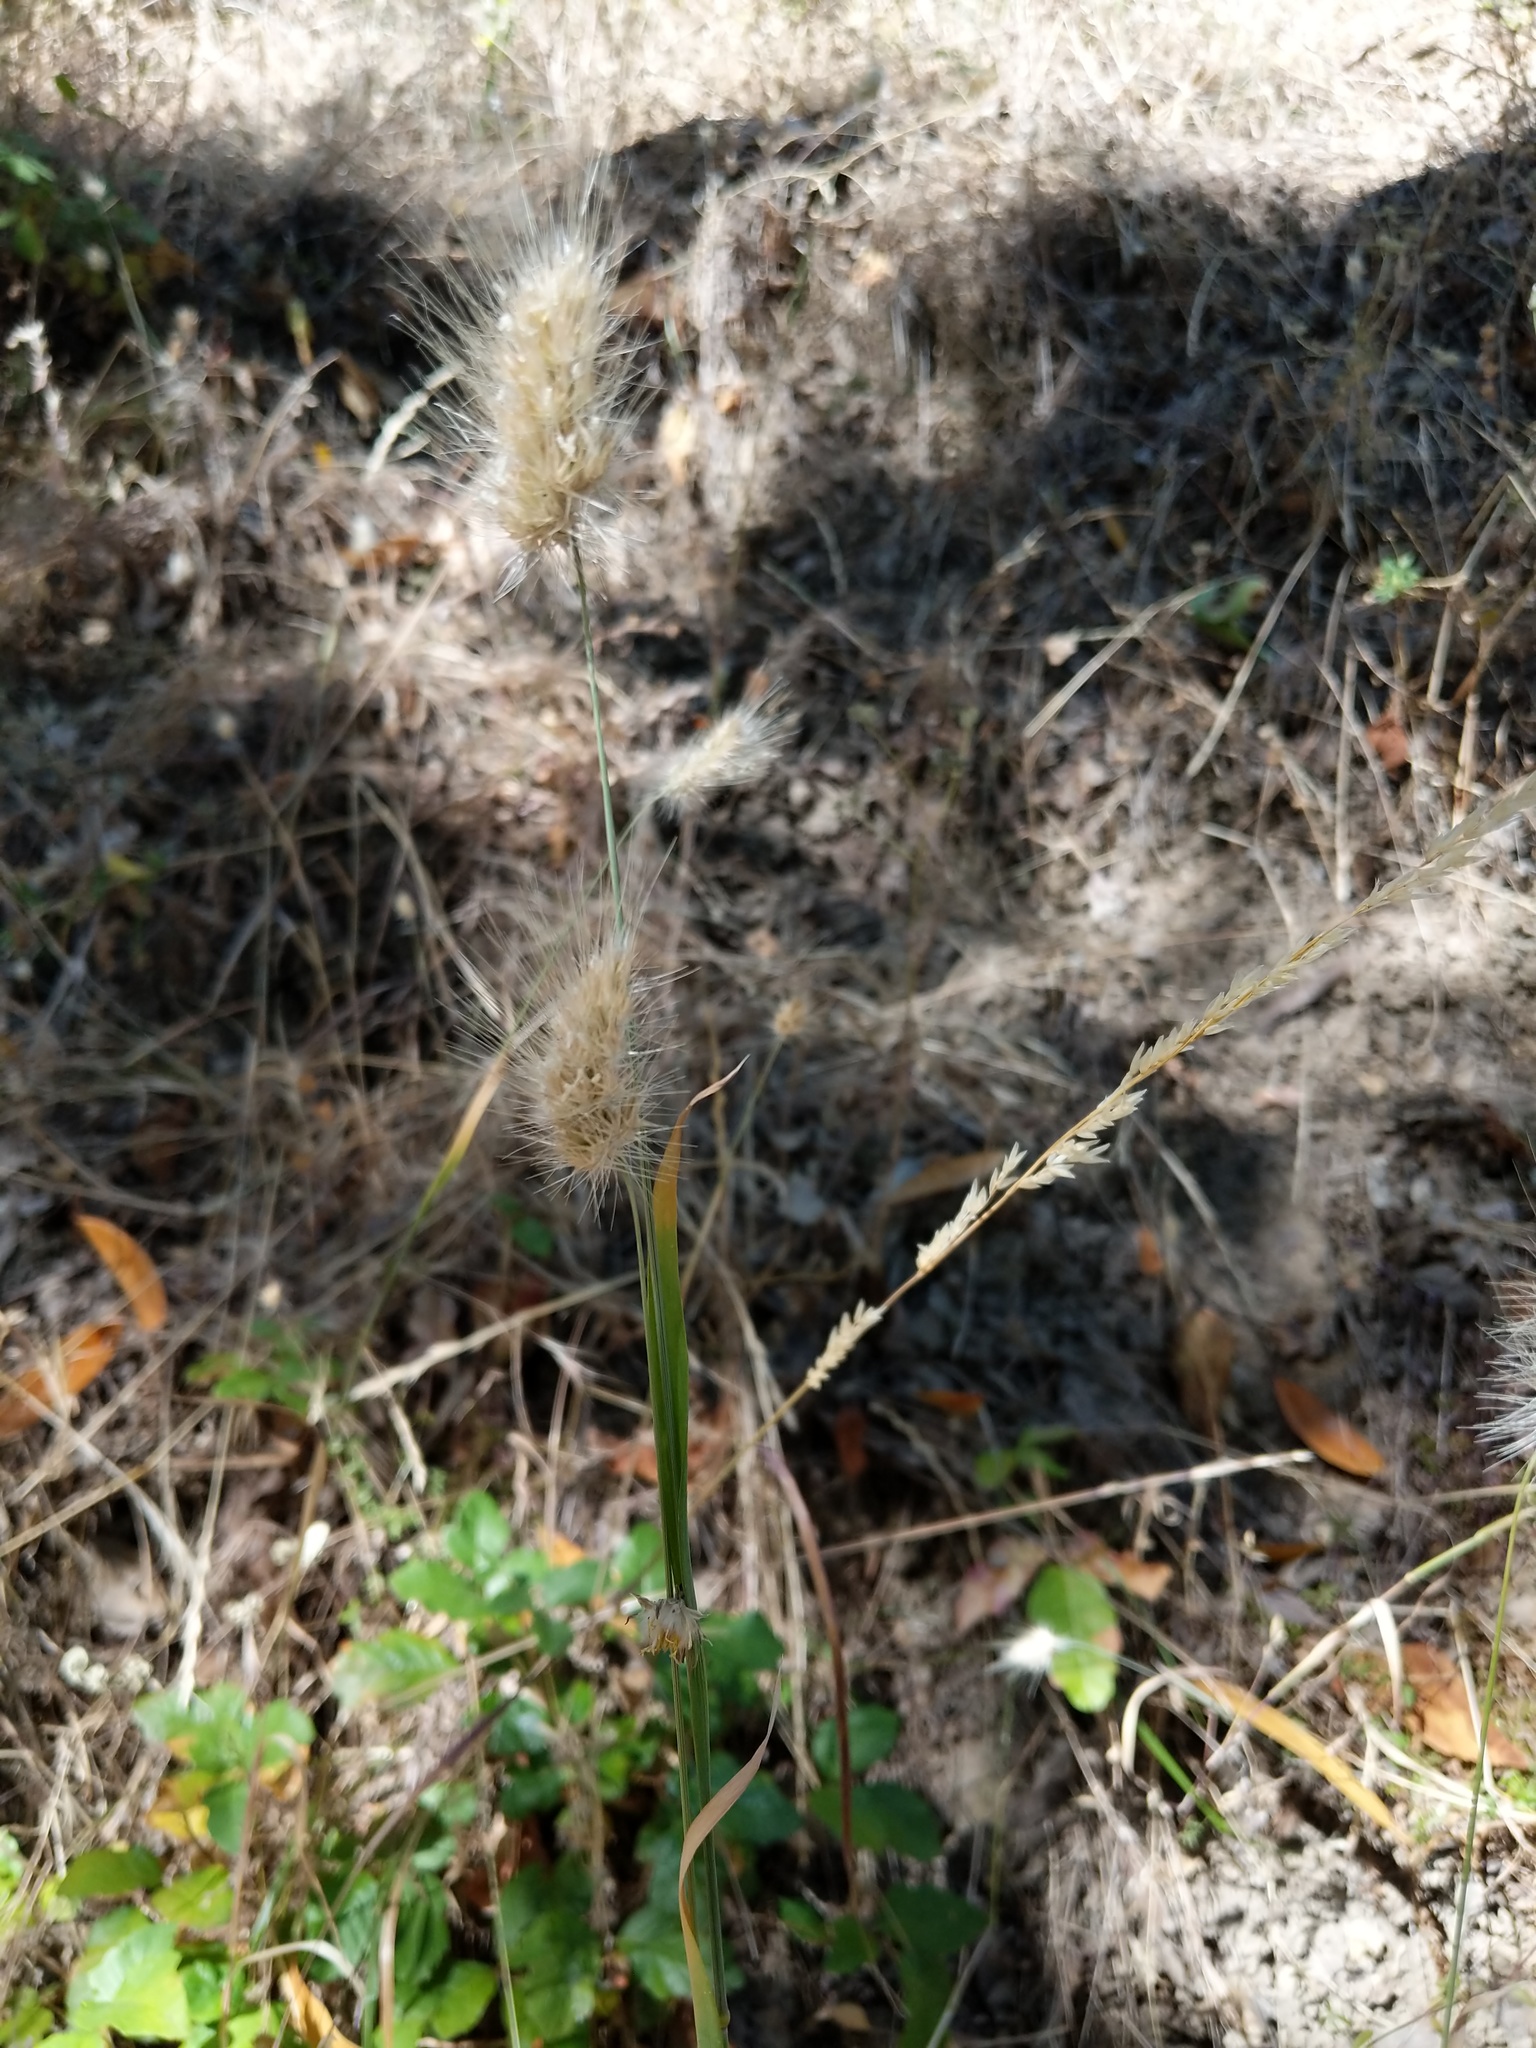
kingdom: Plantae
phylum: Tracheophyta
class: Liliopsida
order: Poales
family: Poaceae
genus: Cynosurus
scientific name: Cynosurus echinatus
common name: Rough dog's-tail
